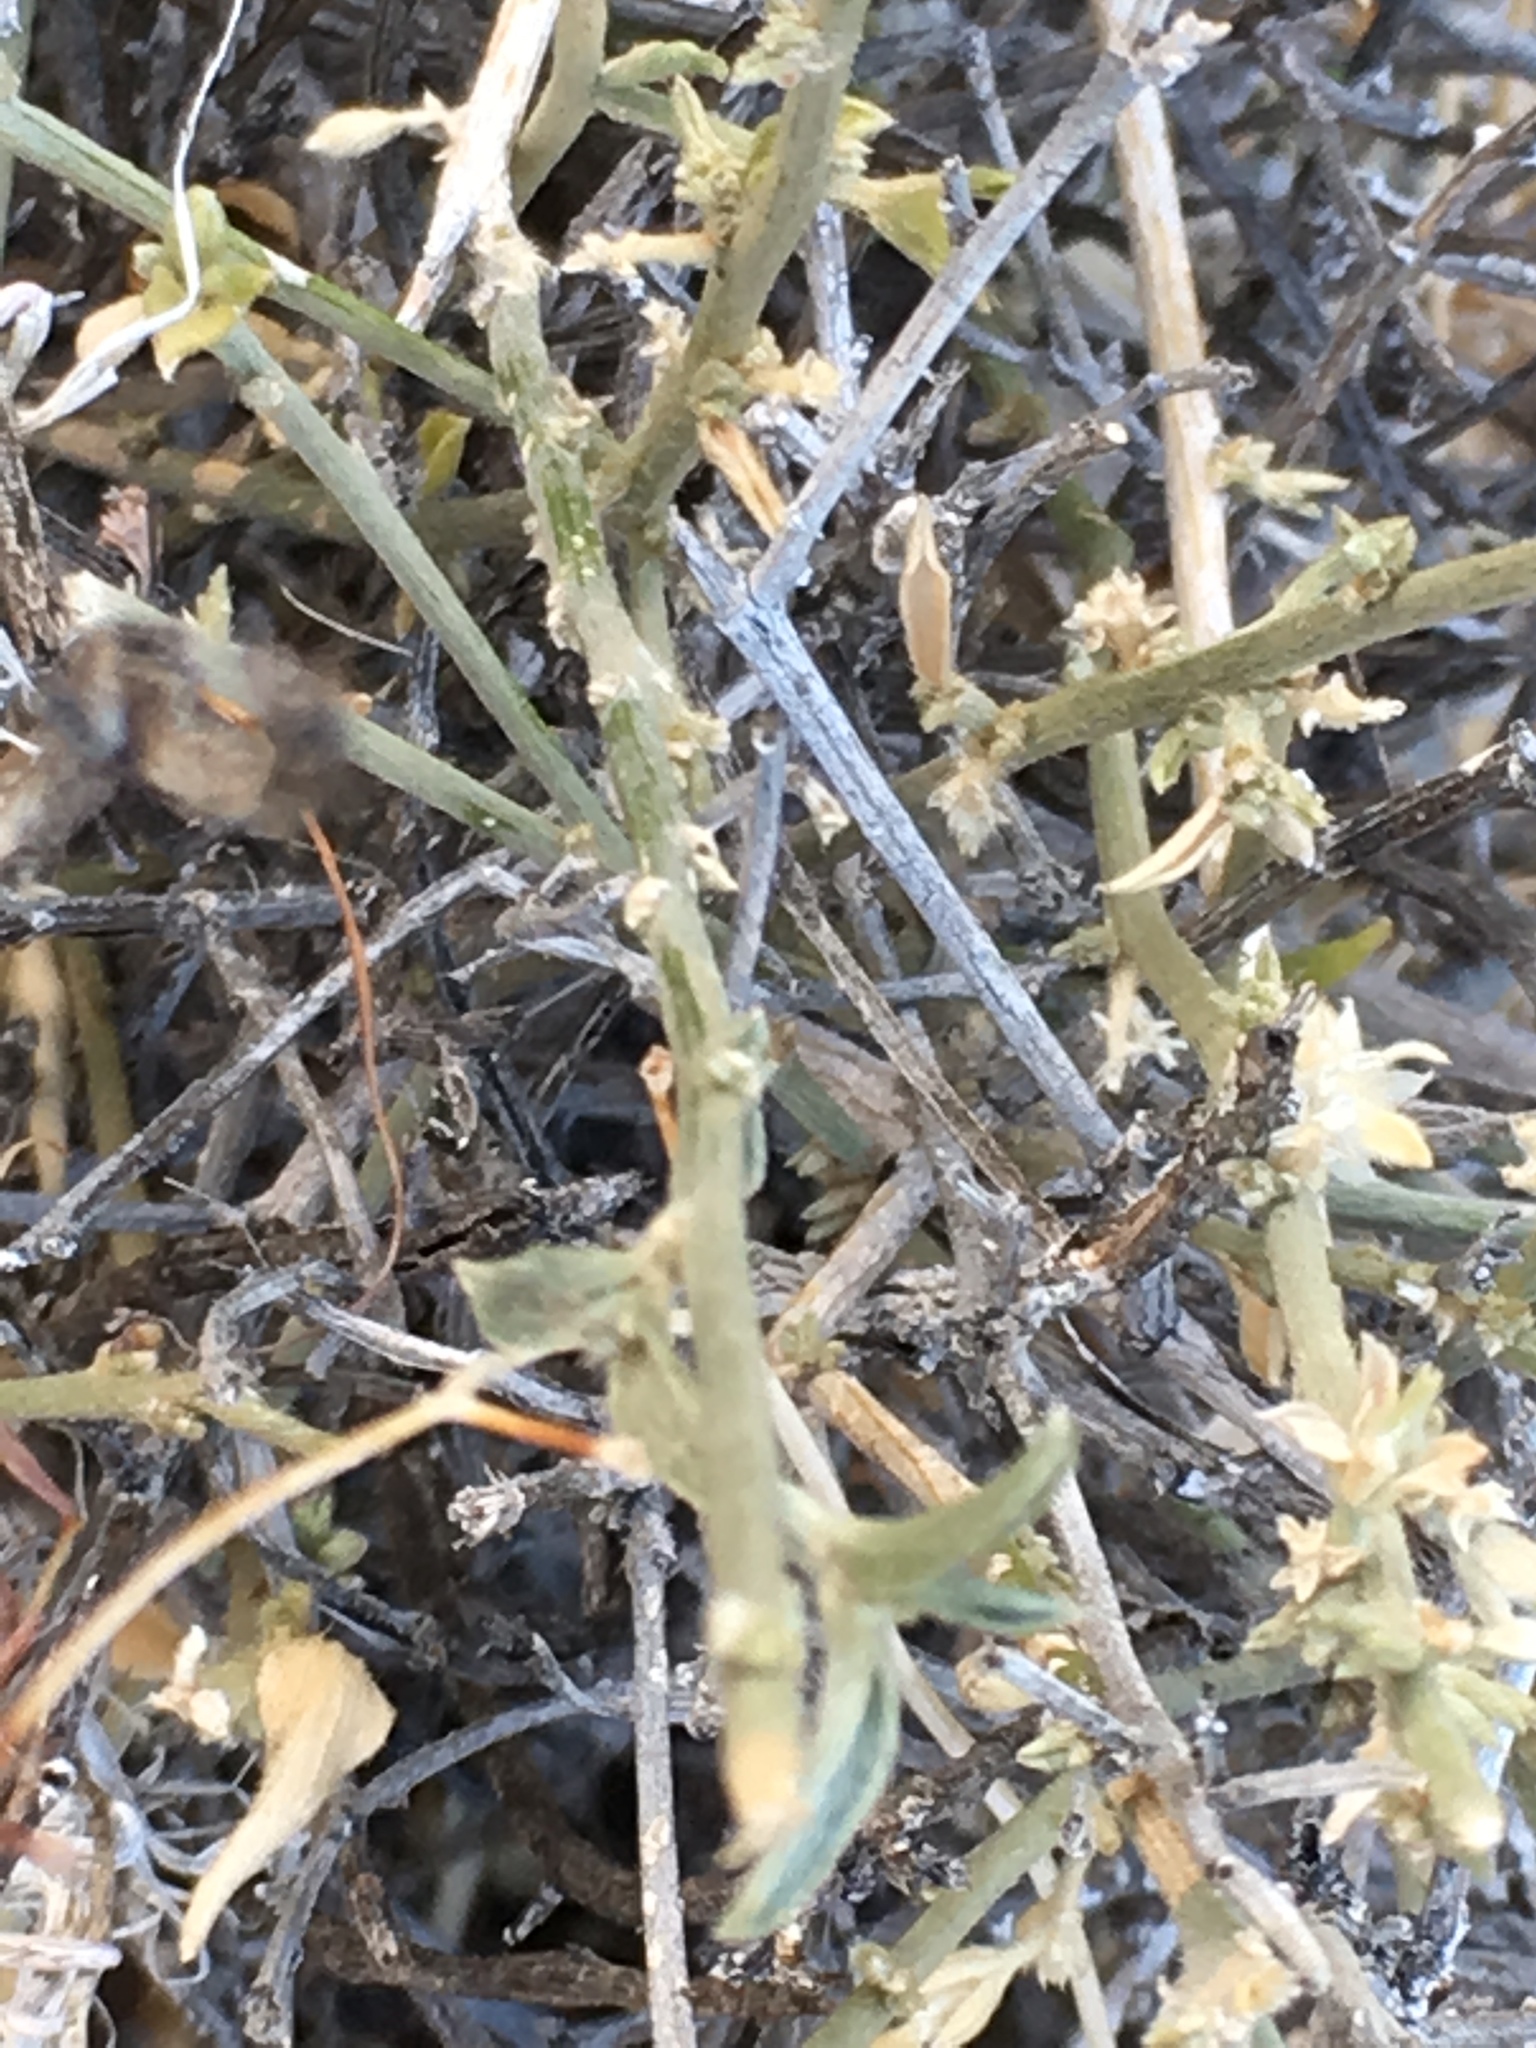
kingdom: Plantae
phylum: Tracheophyta
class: Magnoliopsida
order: Malpighiales
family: Euphorbiaceae
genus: Ditaxis
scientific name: Ditaxis lanceolata
